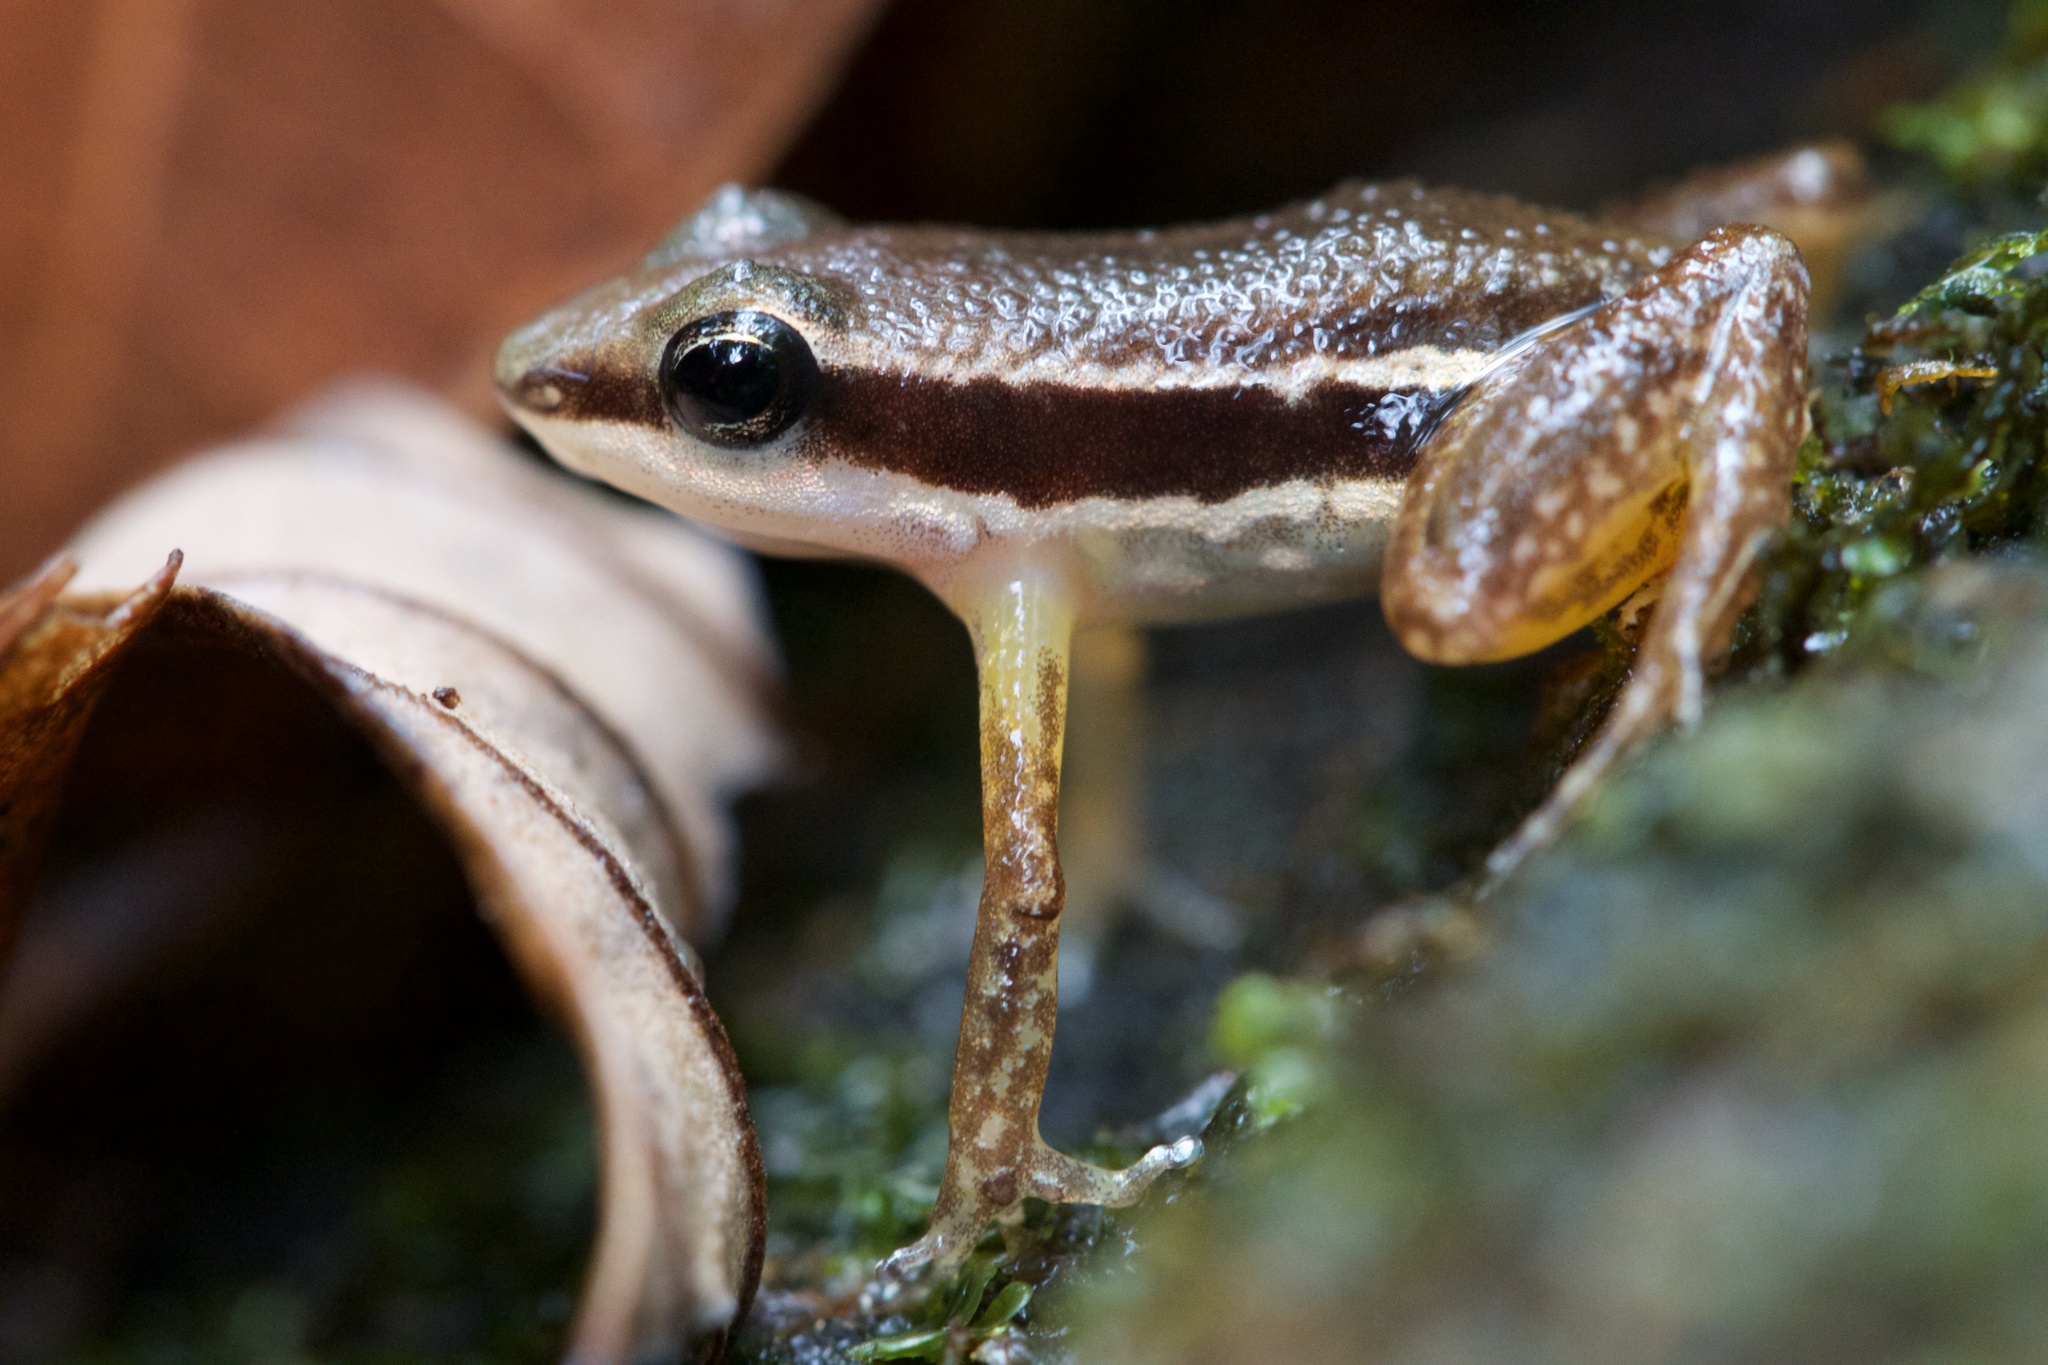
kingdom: Animalia
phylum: Chordata
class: Amphibia
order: Anura
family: Dendrobatidae
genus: Silverstoneia
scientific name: Silverstoneia flotator
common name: Rainforest rocket frog
